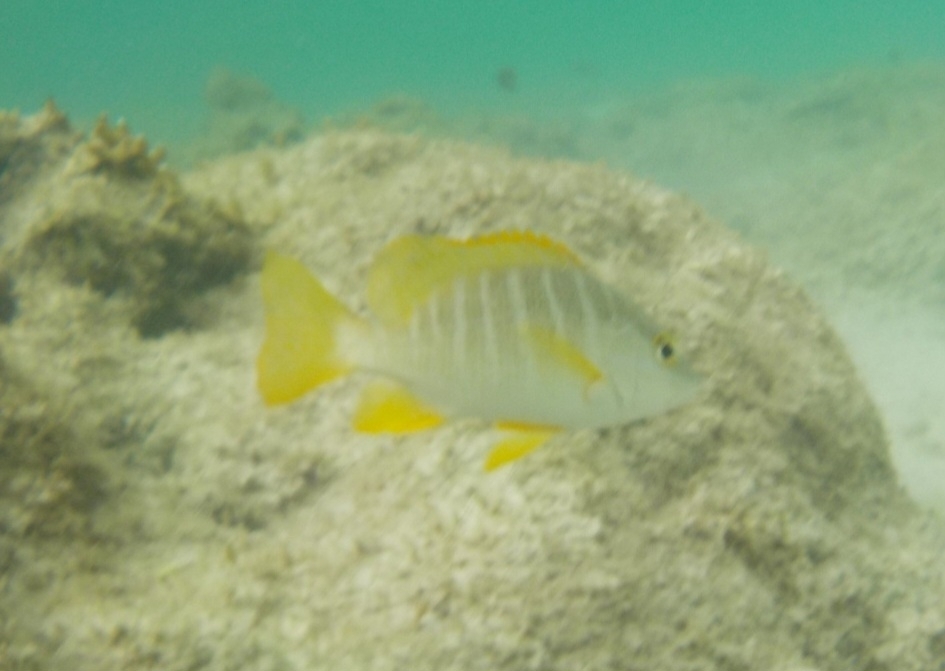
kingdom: Animalia
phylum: Chordata
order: Perciformes
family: Lutjanidae
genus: Lutjanus
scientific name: Lutjanus apodus
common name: Schoolmaster
